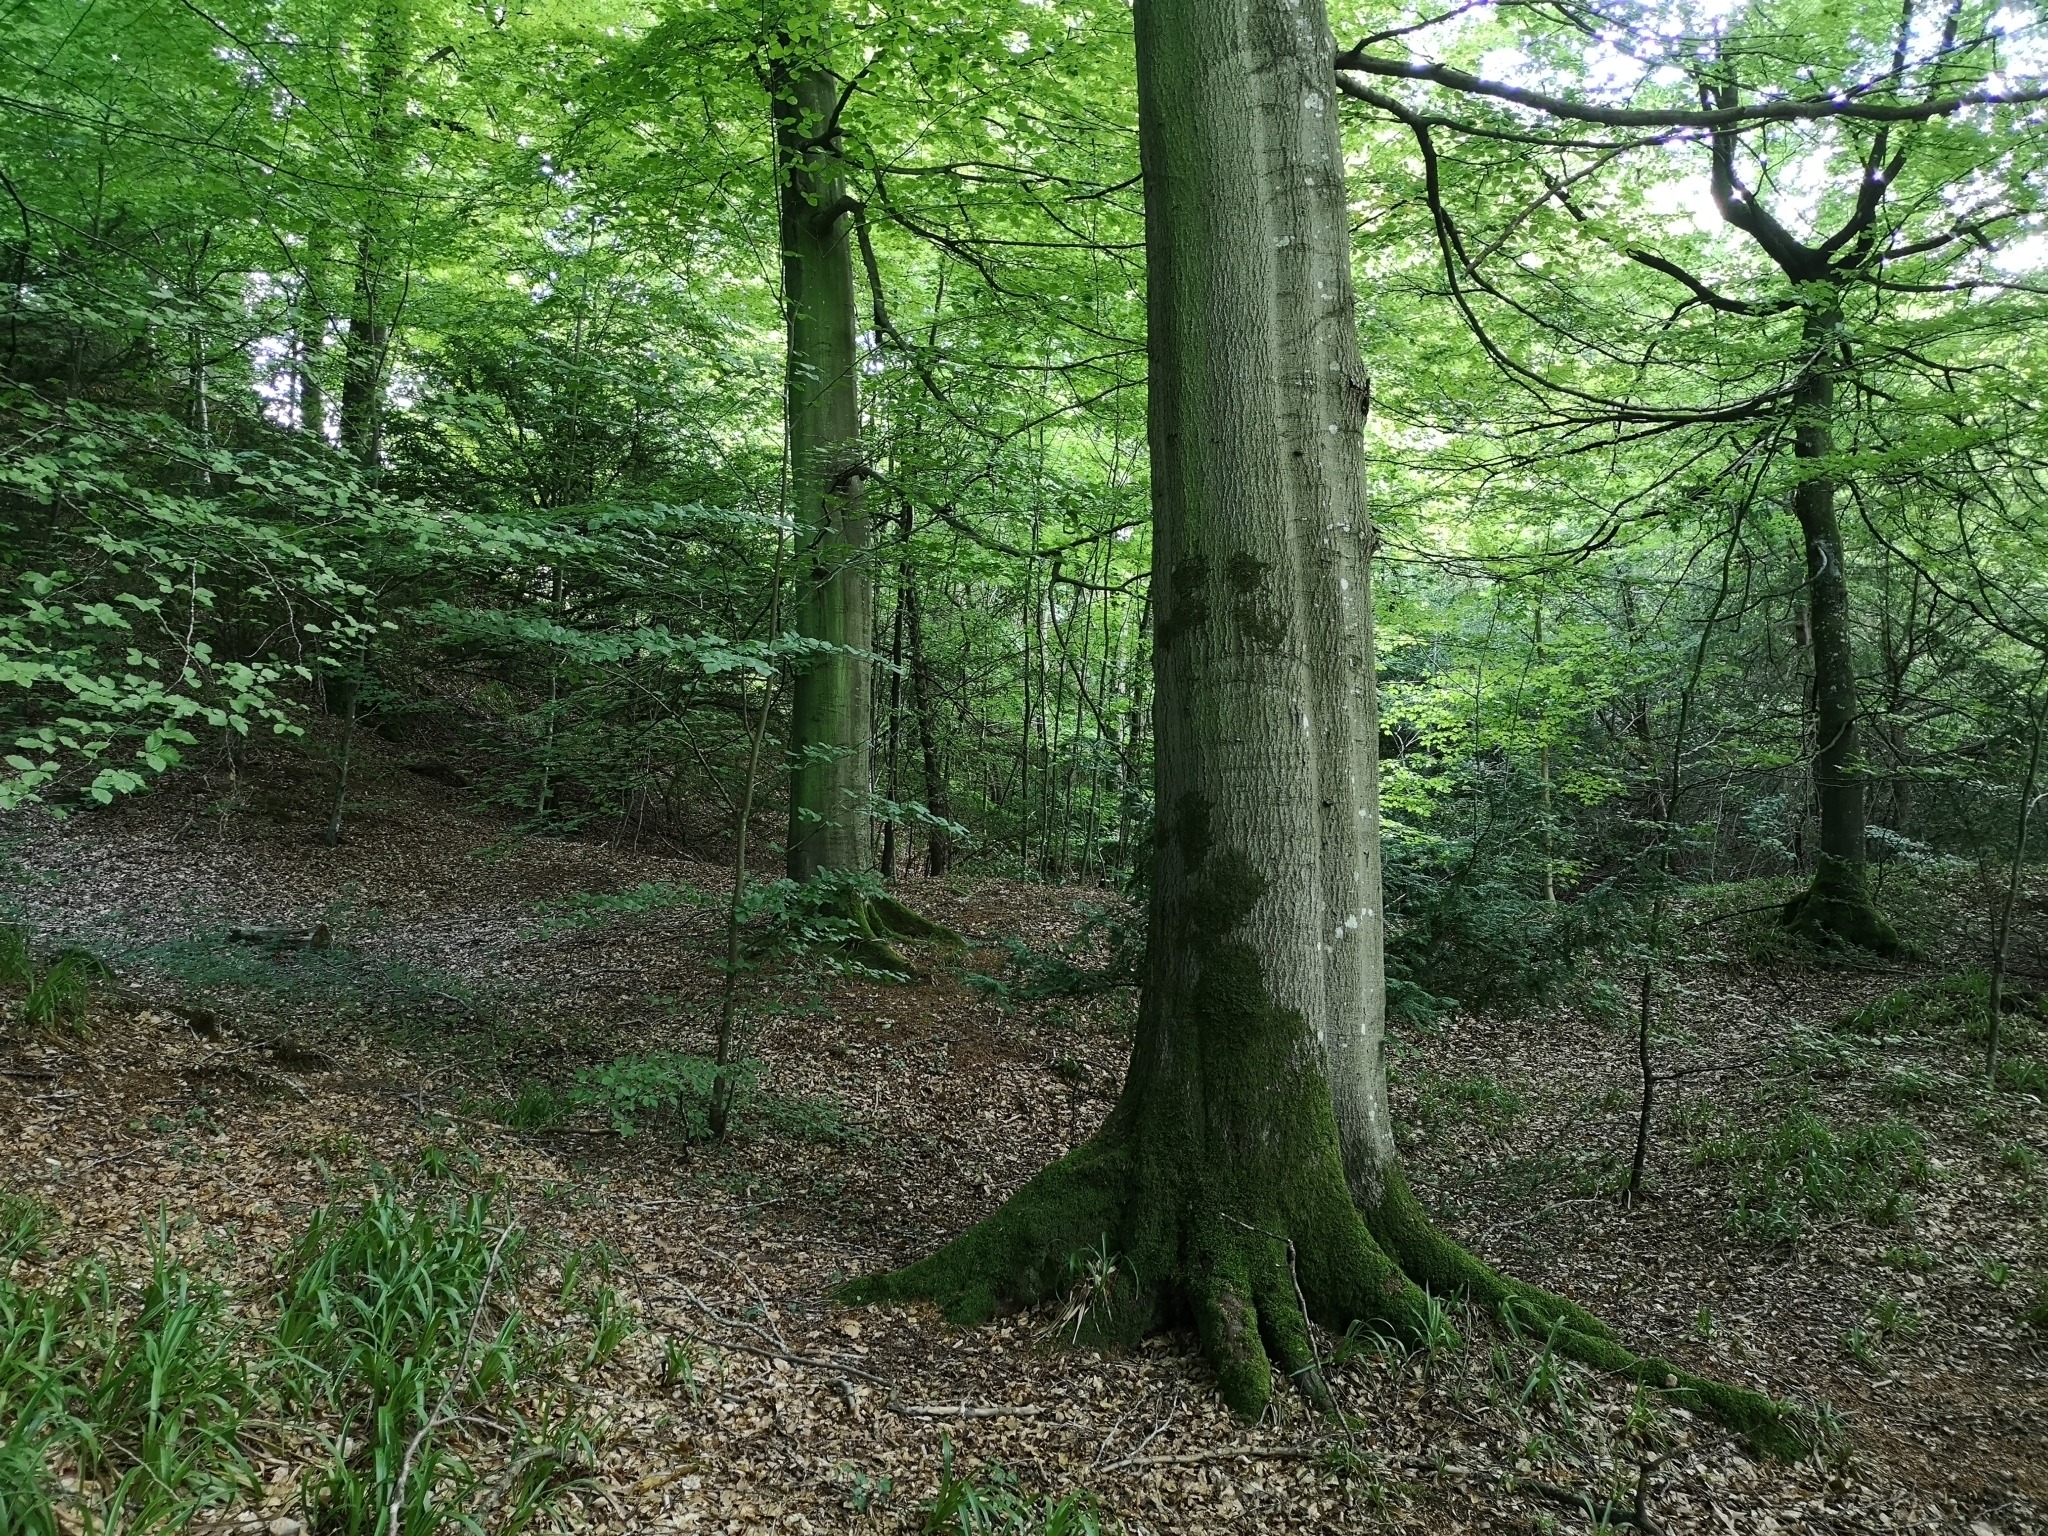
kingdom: Plantae
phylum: Tracheophyta
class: Magnoliopsida
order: Fagales
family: Fagaceae
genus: Fagus
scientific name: Fagus sylvatica
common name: Beech
